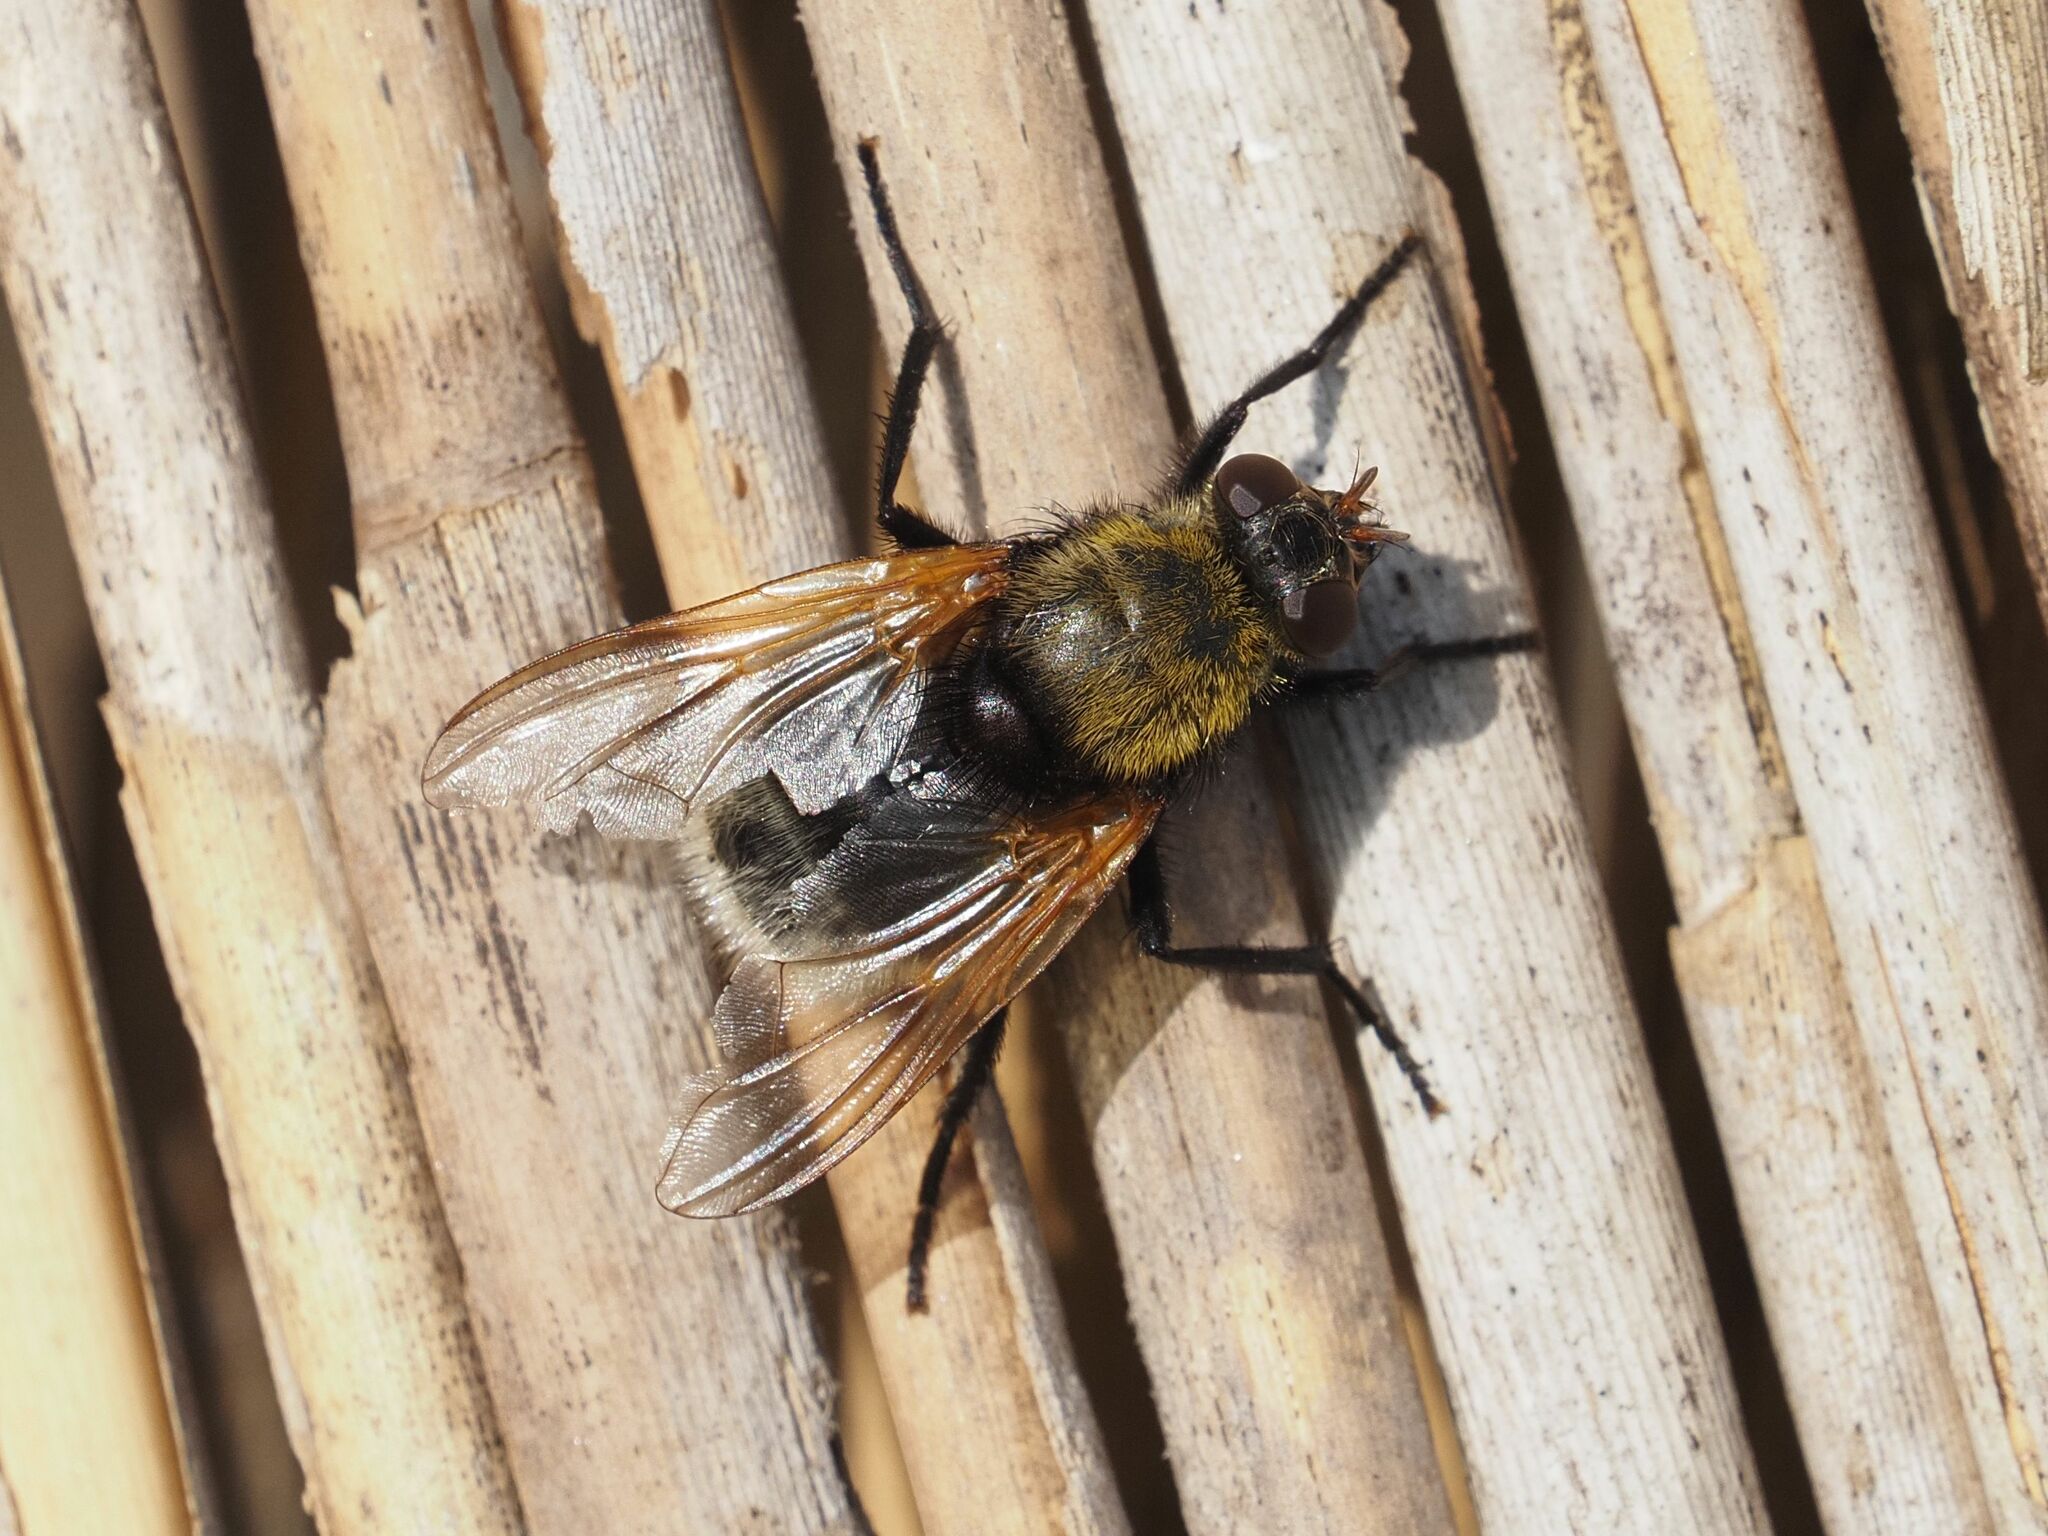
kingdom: Animalia
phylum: Arthropoda
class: Insecta
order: Diptera
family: Muscidae
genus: Mesembrina
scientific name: Mesembrina mystacea
